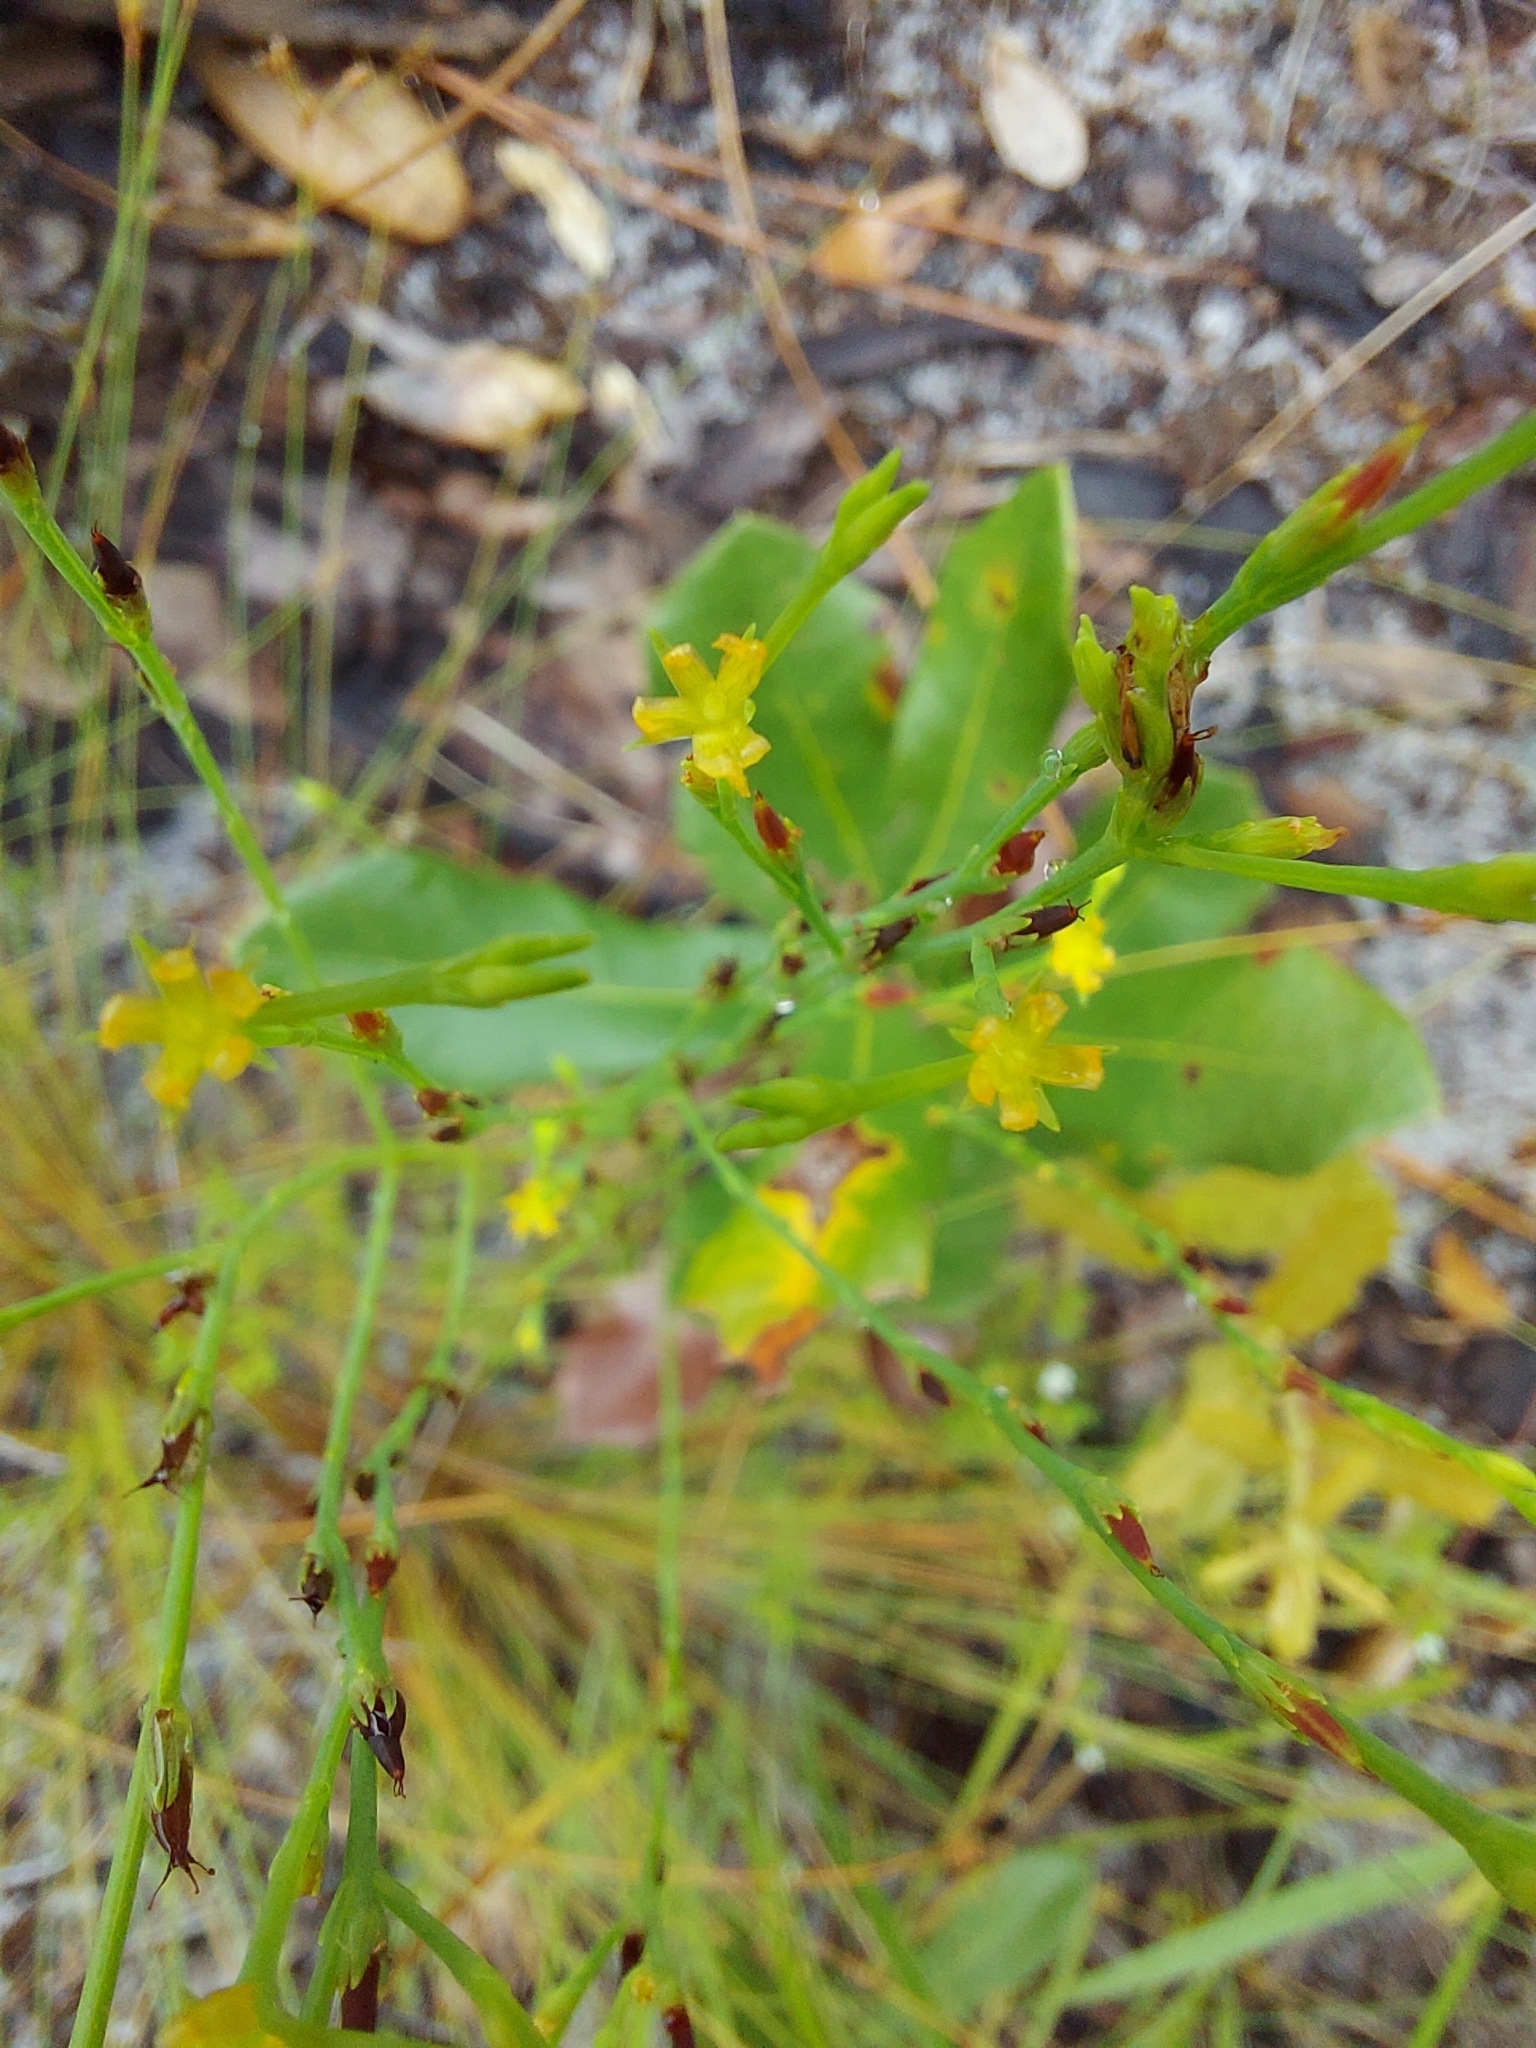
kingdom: Plantae
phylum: Tracheophyta
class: Magnoliopsida
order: Malpighiales
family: Hypericaceae
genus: Hypericum
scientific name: Hypericum gentianoides
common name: Gentian-leaved st. john's-wort
